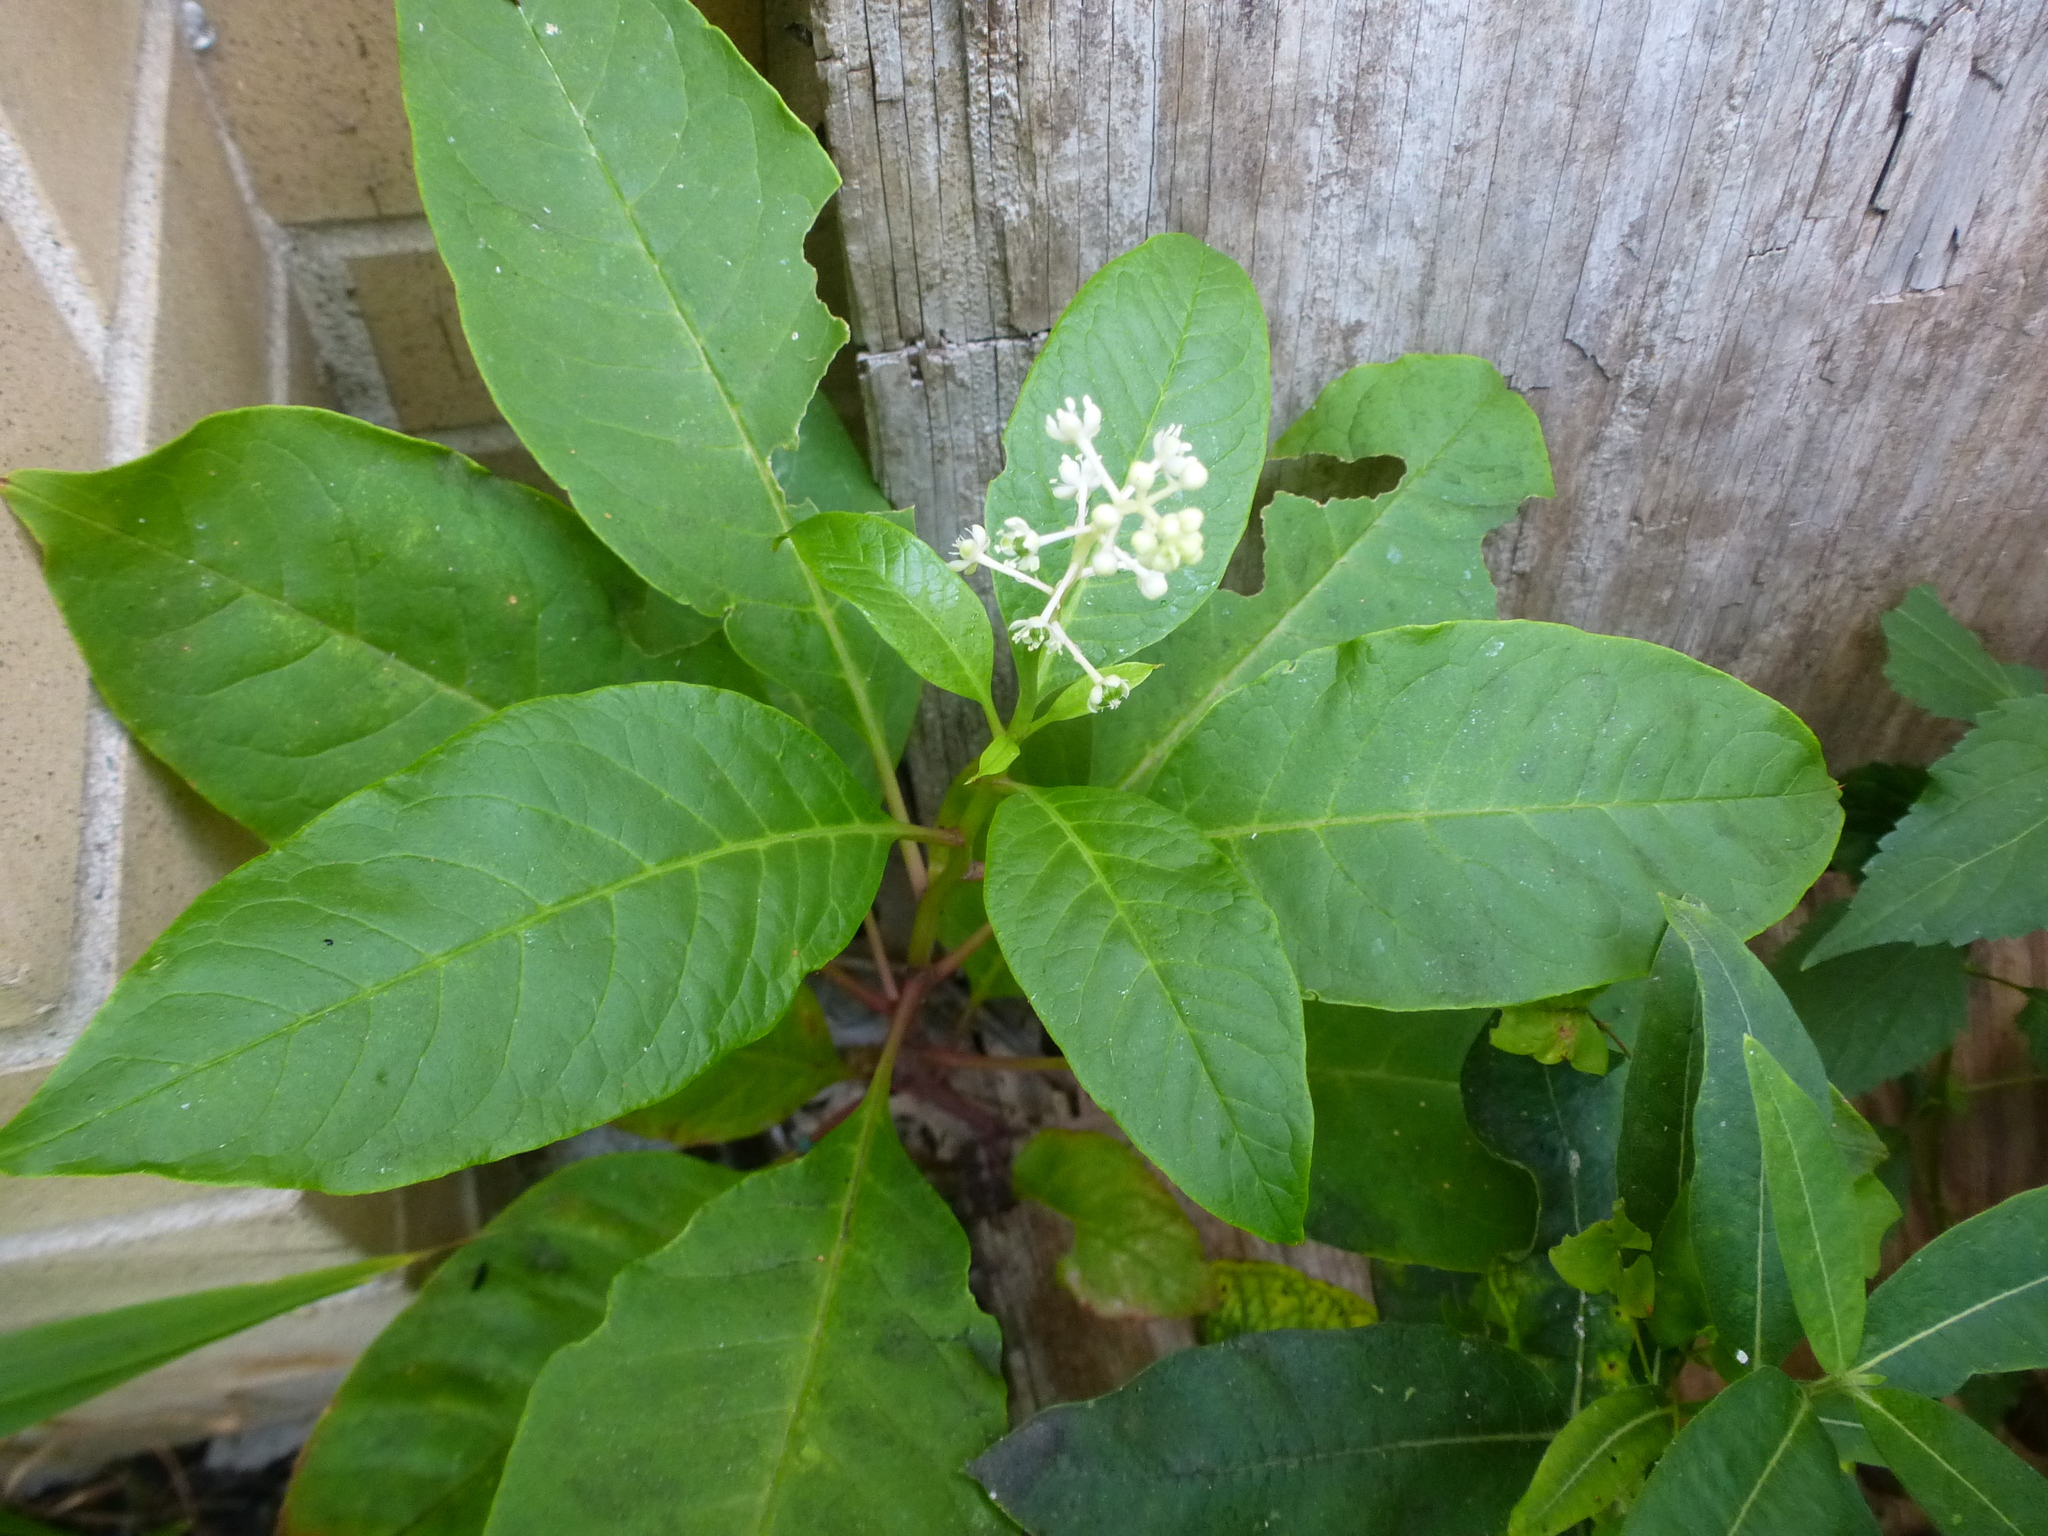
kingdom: Plantae
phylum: Tracheophyta
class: Magnoliopsida
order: Caryophyllales
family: Phytolaccaceae
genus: Phytolacca
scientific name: Phytolacca americana
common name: American pokeweed
